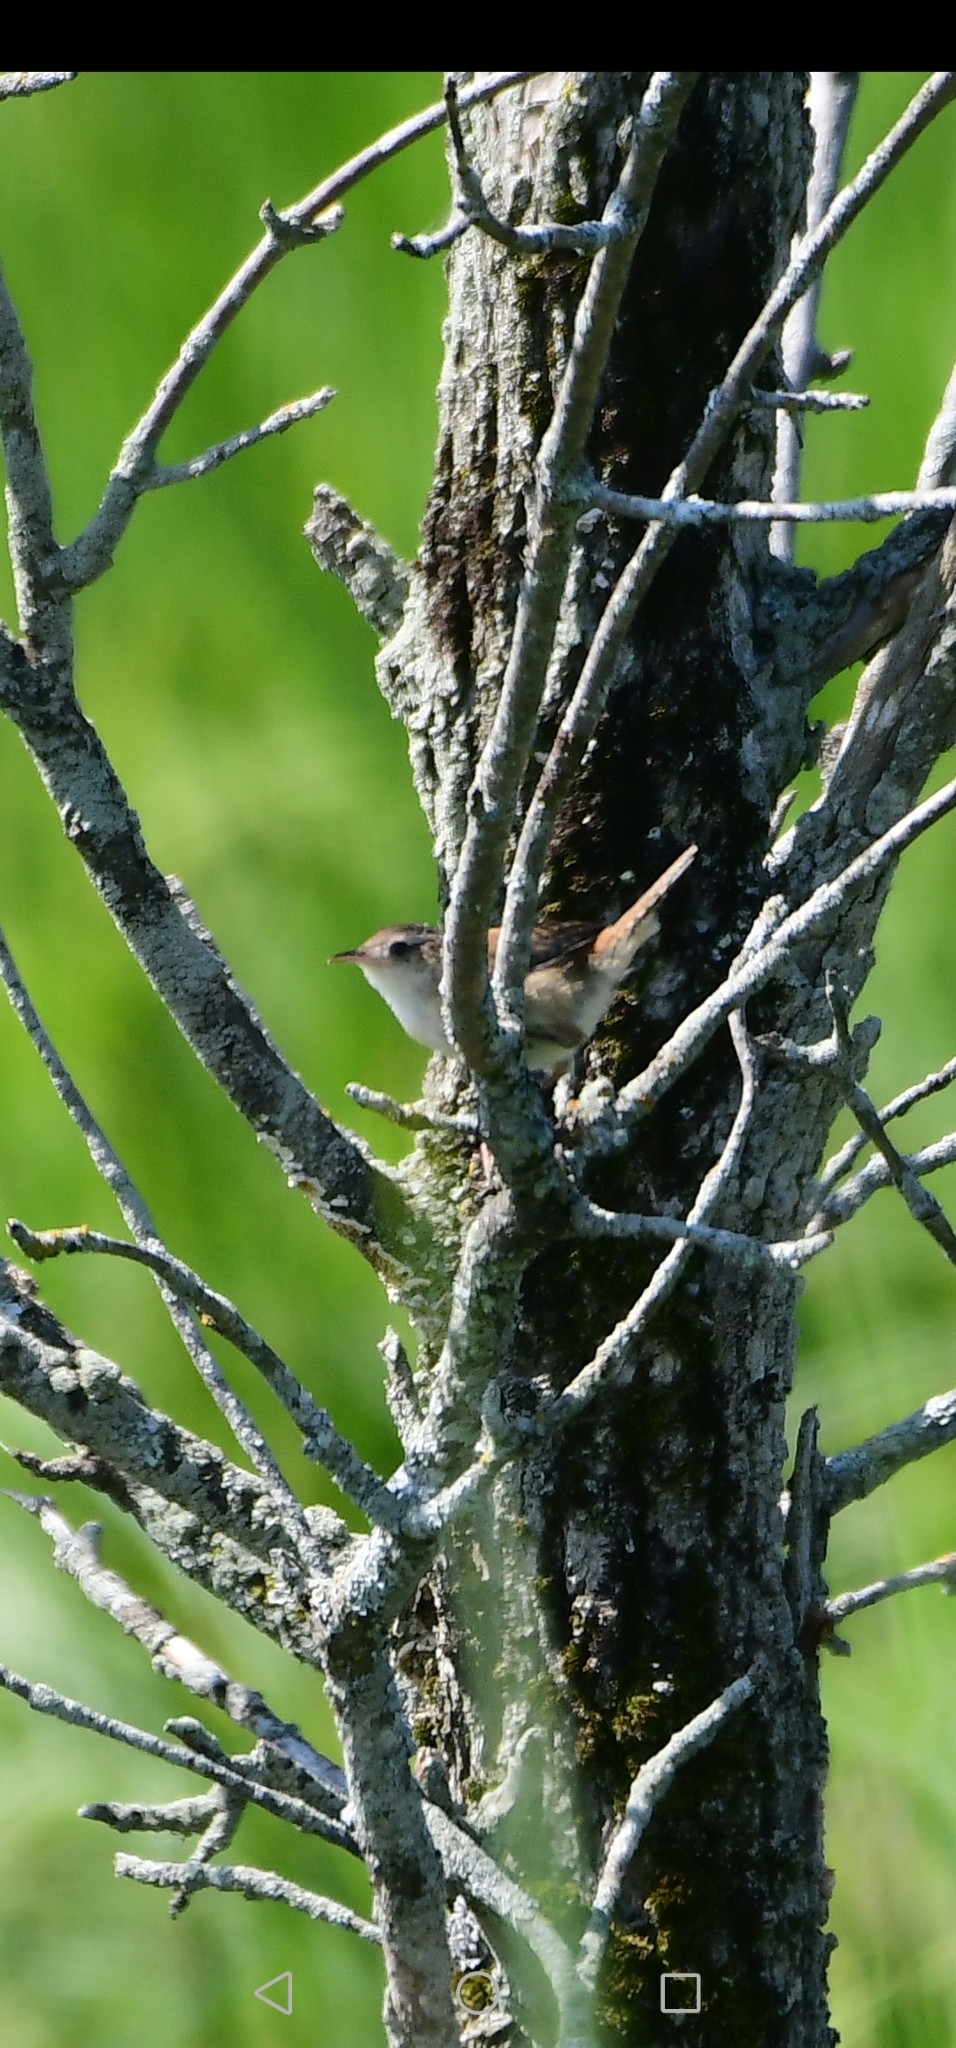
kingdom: Animalia
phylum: Chordata
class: Aves
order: Passeriformes
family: Troglodytidae
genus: Cistothorus
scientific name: Cistothorus palustris
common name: Marsh wren
